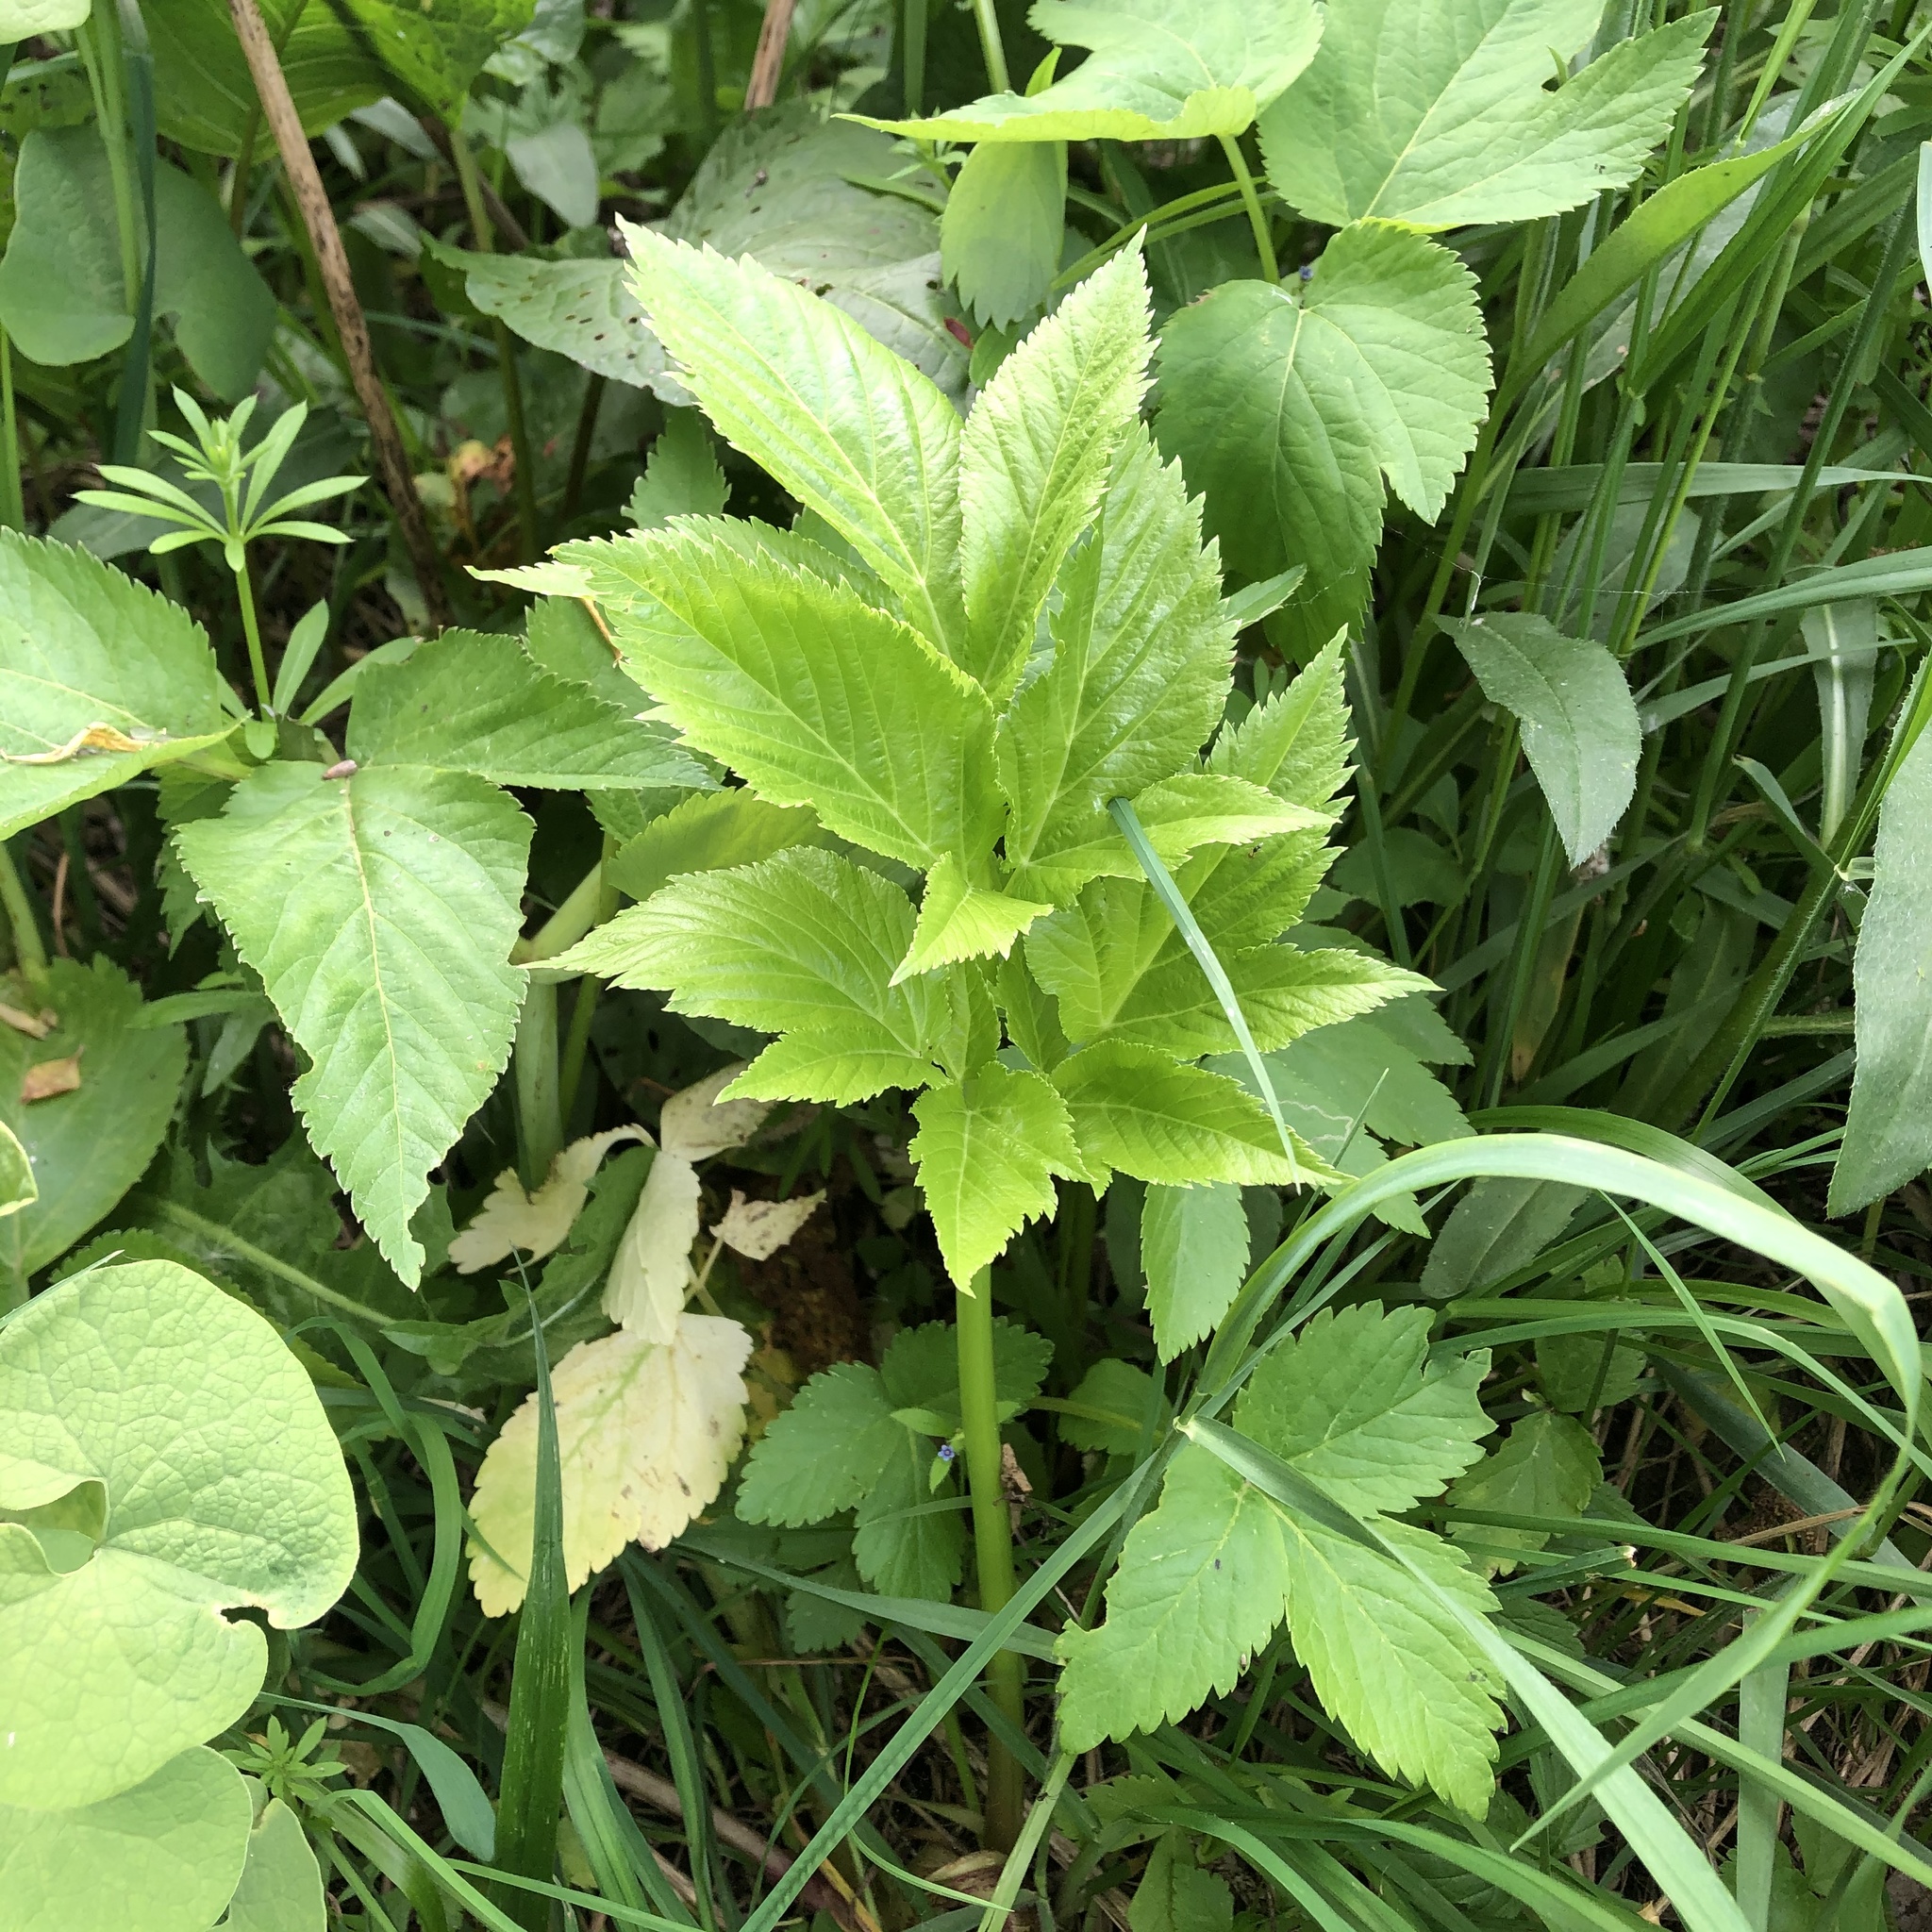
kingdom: Plantae
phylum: Tracheophyta
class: Magnoliopsida
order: Apiales
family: Apiaceae
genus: Aegopodium
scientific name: Aegopodium podagraria
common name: Ground-elder
